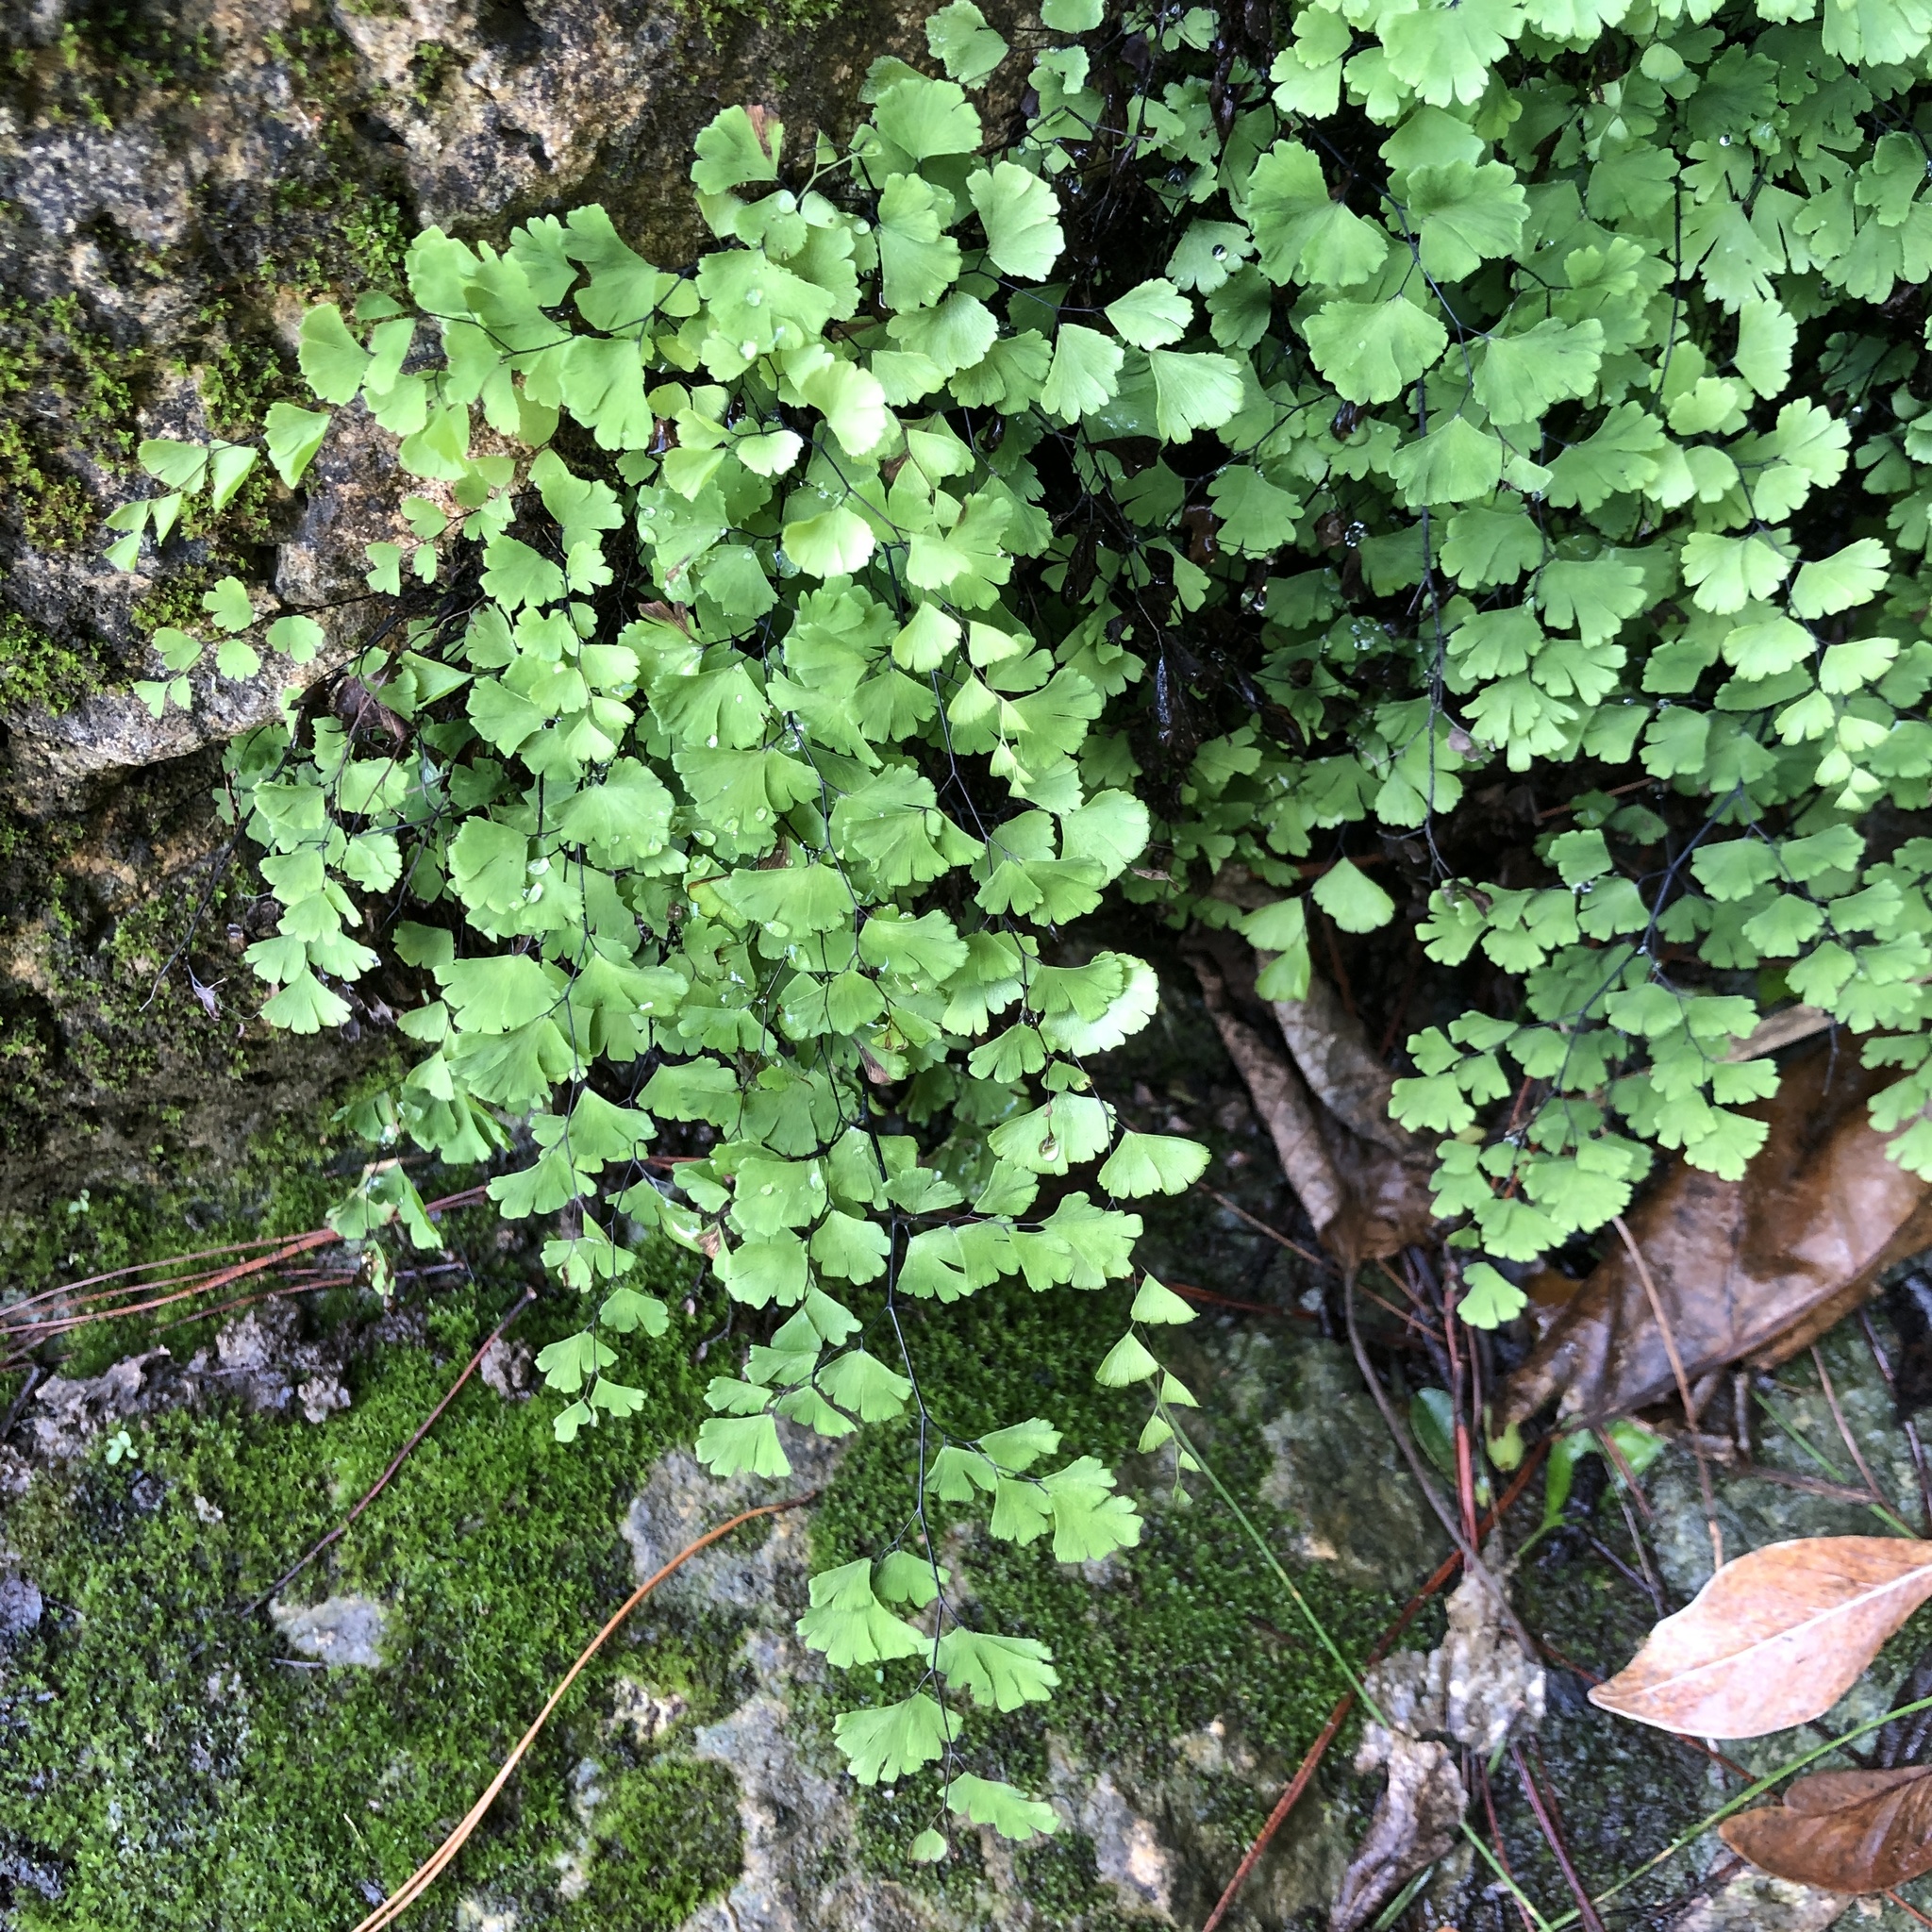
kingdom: Plantae
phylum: Tracheophyta
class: Polypodiopsida
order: Polypodiales
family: Pteridaceae
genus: Adiantum
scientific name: Adiantum capillus-veneris
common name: Maidenhair fern
